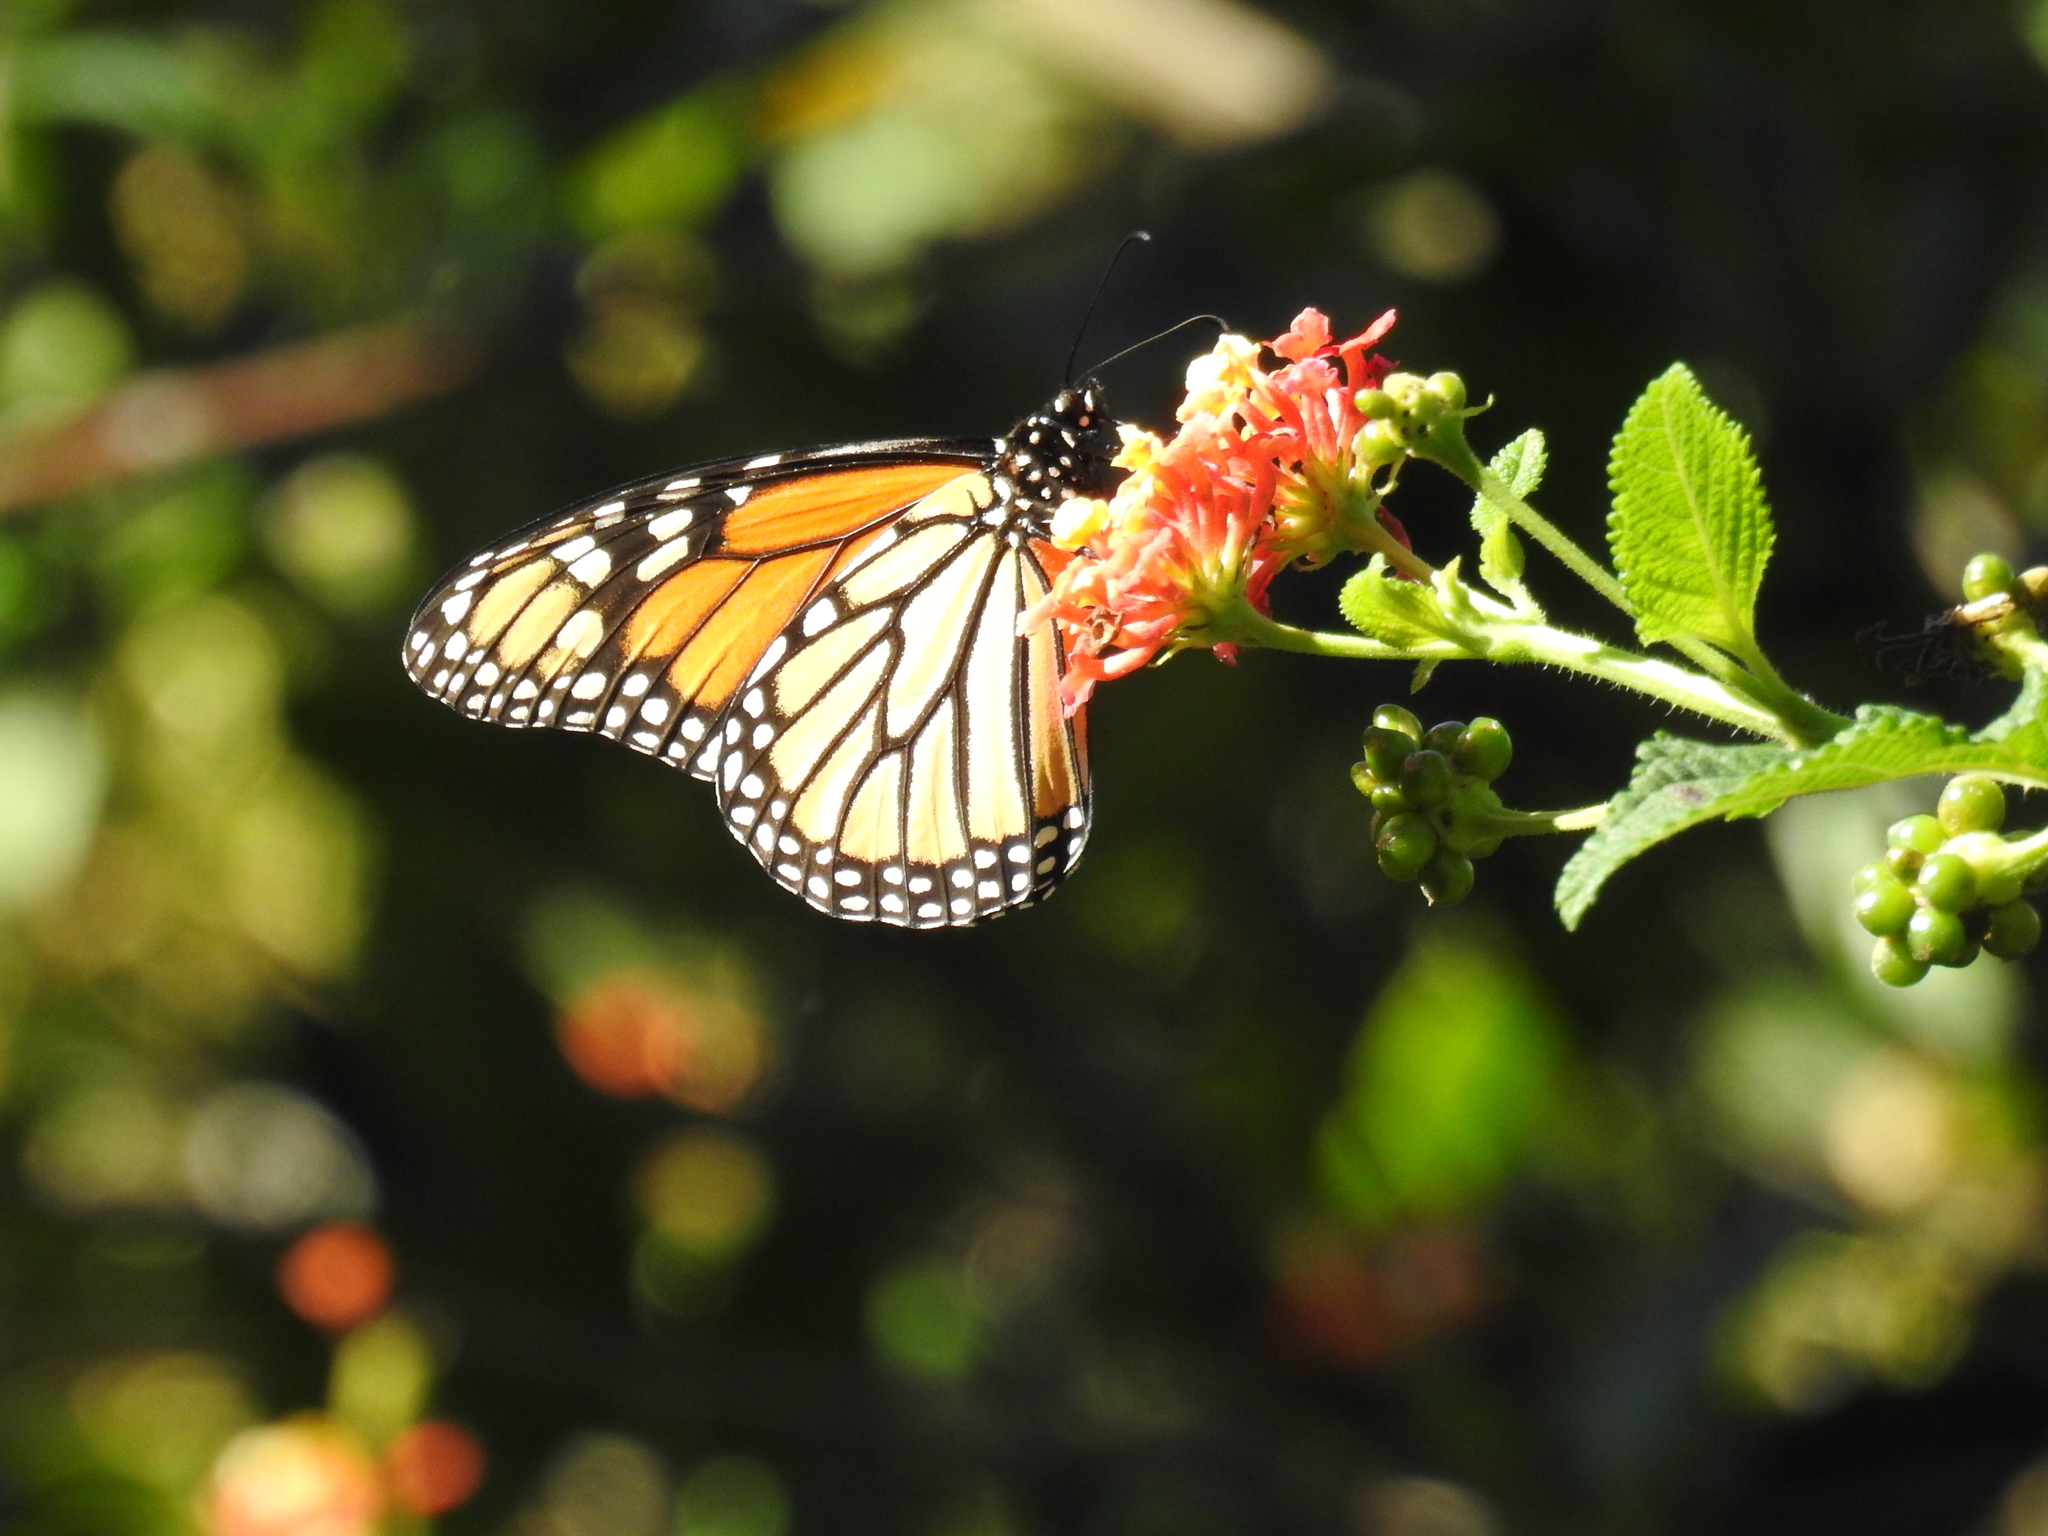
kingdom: Animalia
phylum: Arthropoda
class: Insecta
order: Lepidoptera
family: Nymphalidae
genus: Danaus
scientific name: Danaus plexippus
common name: Monarch
